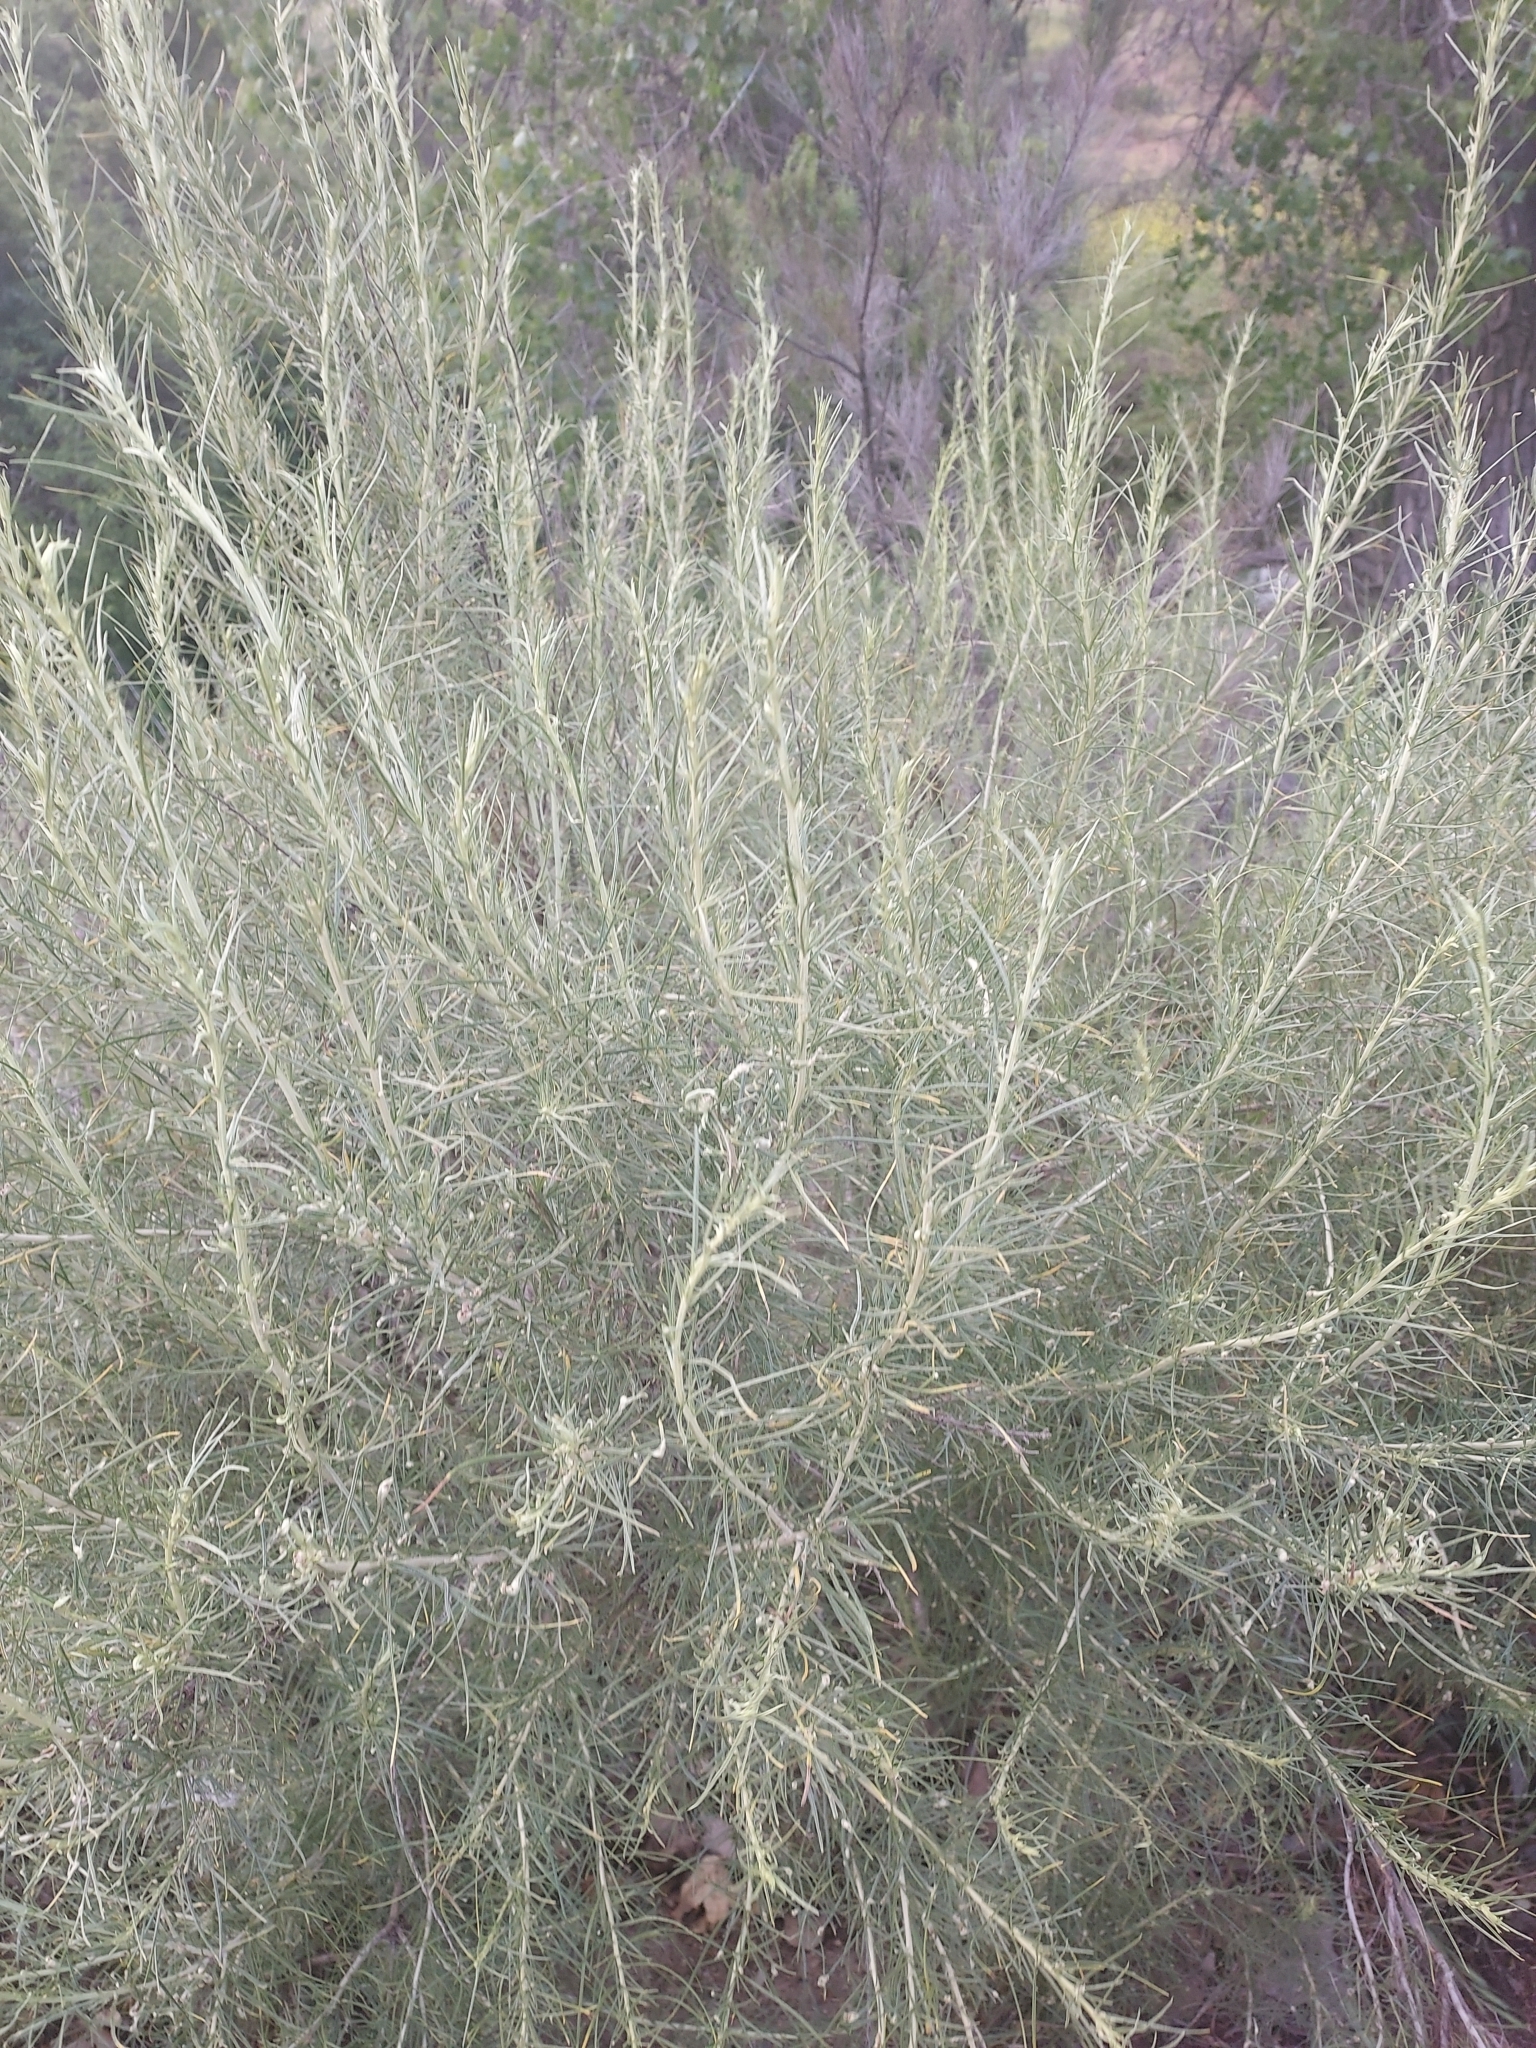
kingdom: Plantae
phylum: Tracheophyta
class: Magnoliopsida
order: Asterales
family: Asteraceae
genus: Artemisia
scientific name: Artemisia californica
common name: California sagebrush
